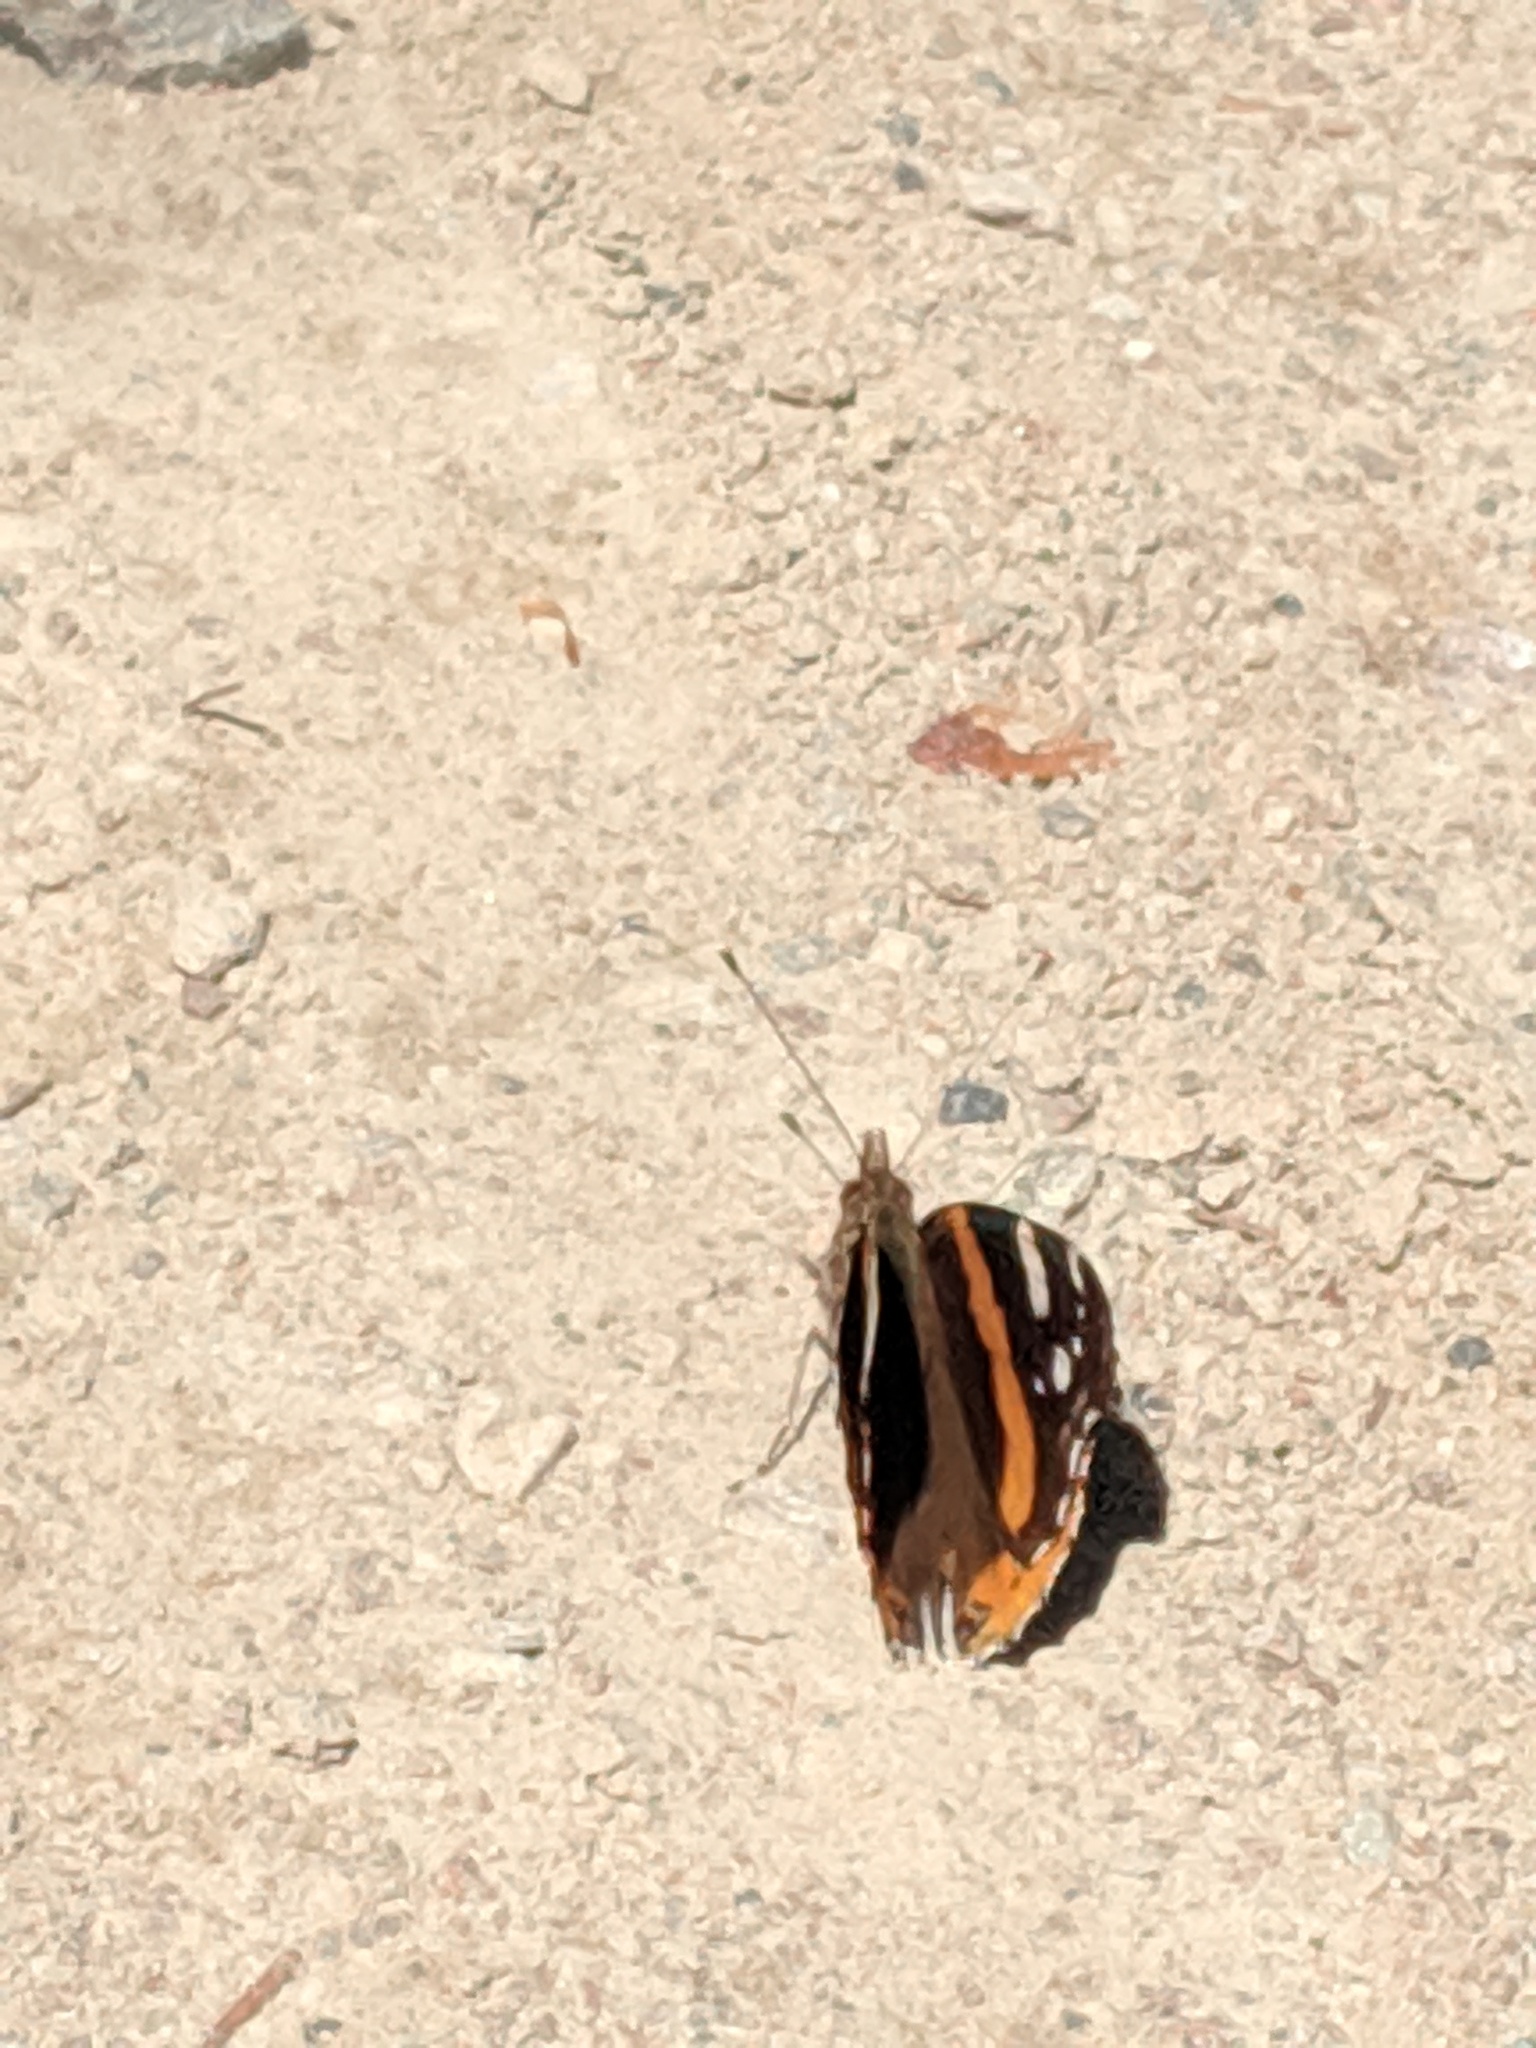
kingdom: Animalia
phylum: Arthropoda
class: Insecta
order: Lepidoptera
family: Nymphalidae
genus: Vanessa
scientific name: Vanessa atalanta
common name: Red admiral
